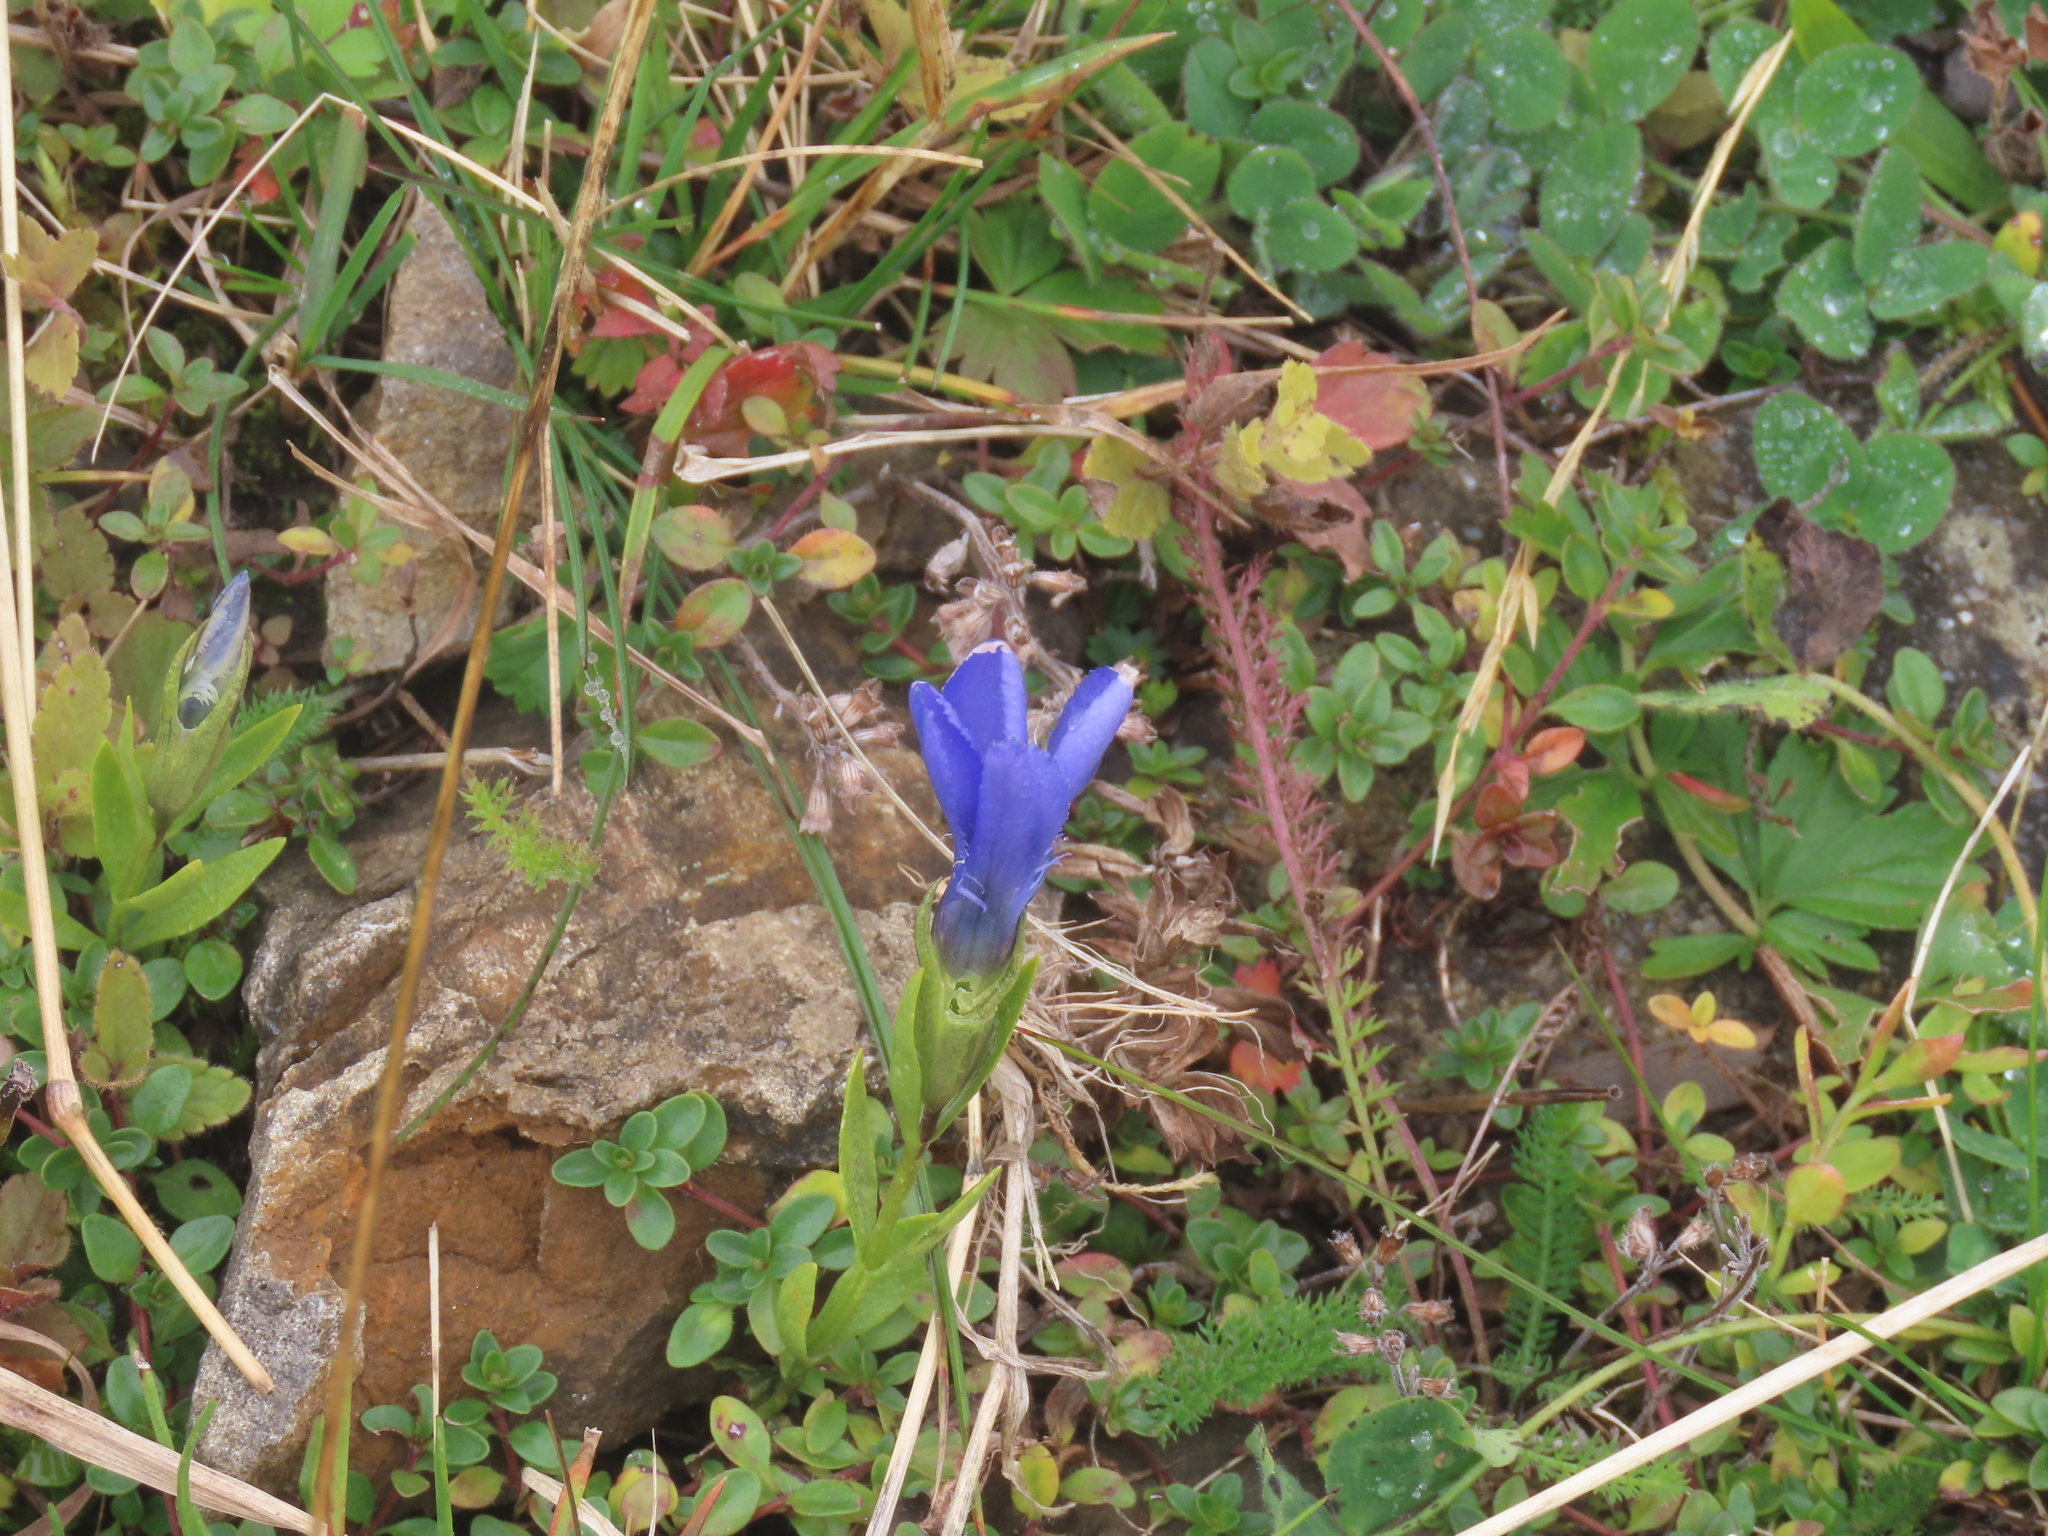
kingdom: Plantae
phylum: Tracheophyta
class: Magnoliopsida
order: Gentianales
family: Gentianaceae
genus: Gentianopsis
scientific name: Gentianopsis ciliata
